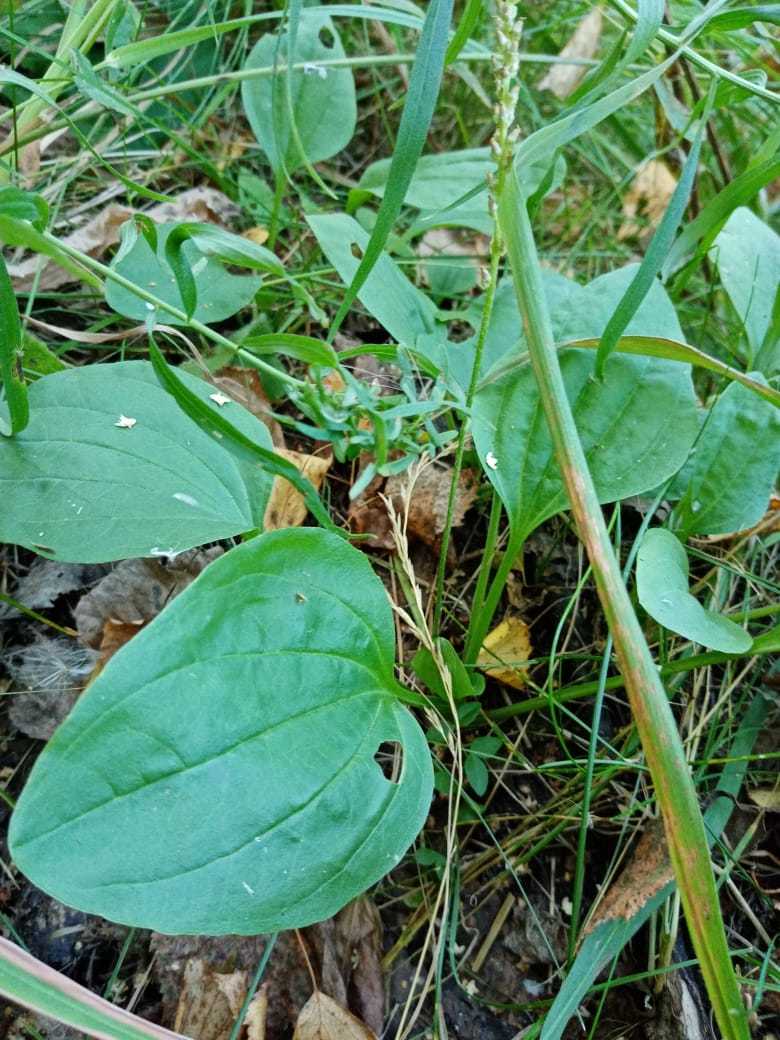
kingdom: Plantae
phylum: Tracheophyta
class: Magnoliopsida
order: Lamiales
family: Plantaginaceae
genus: Plantago
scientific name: Plantago major
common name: Common plantain
